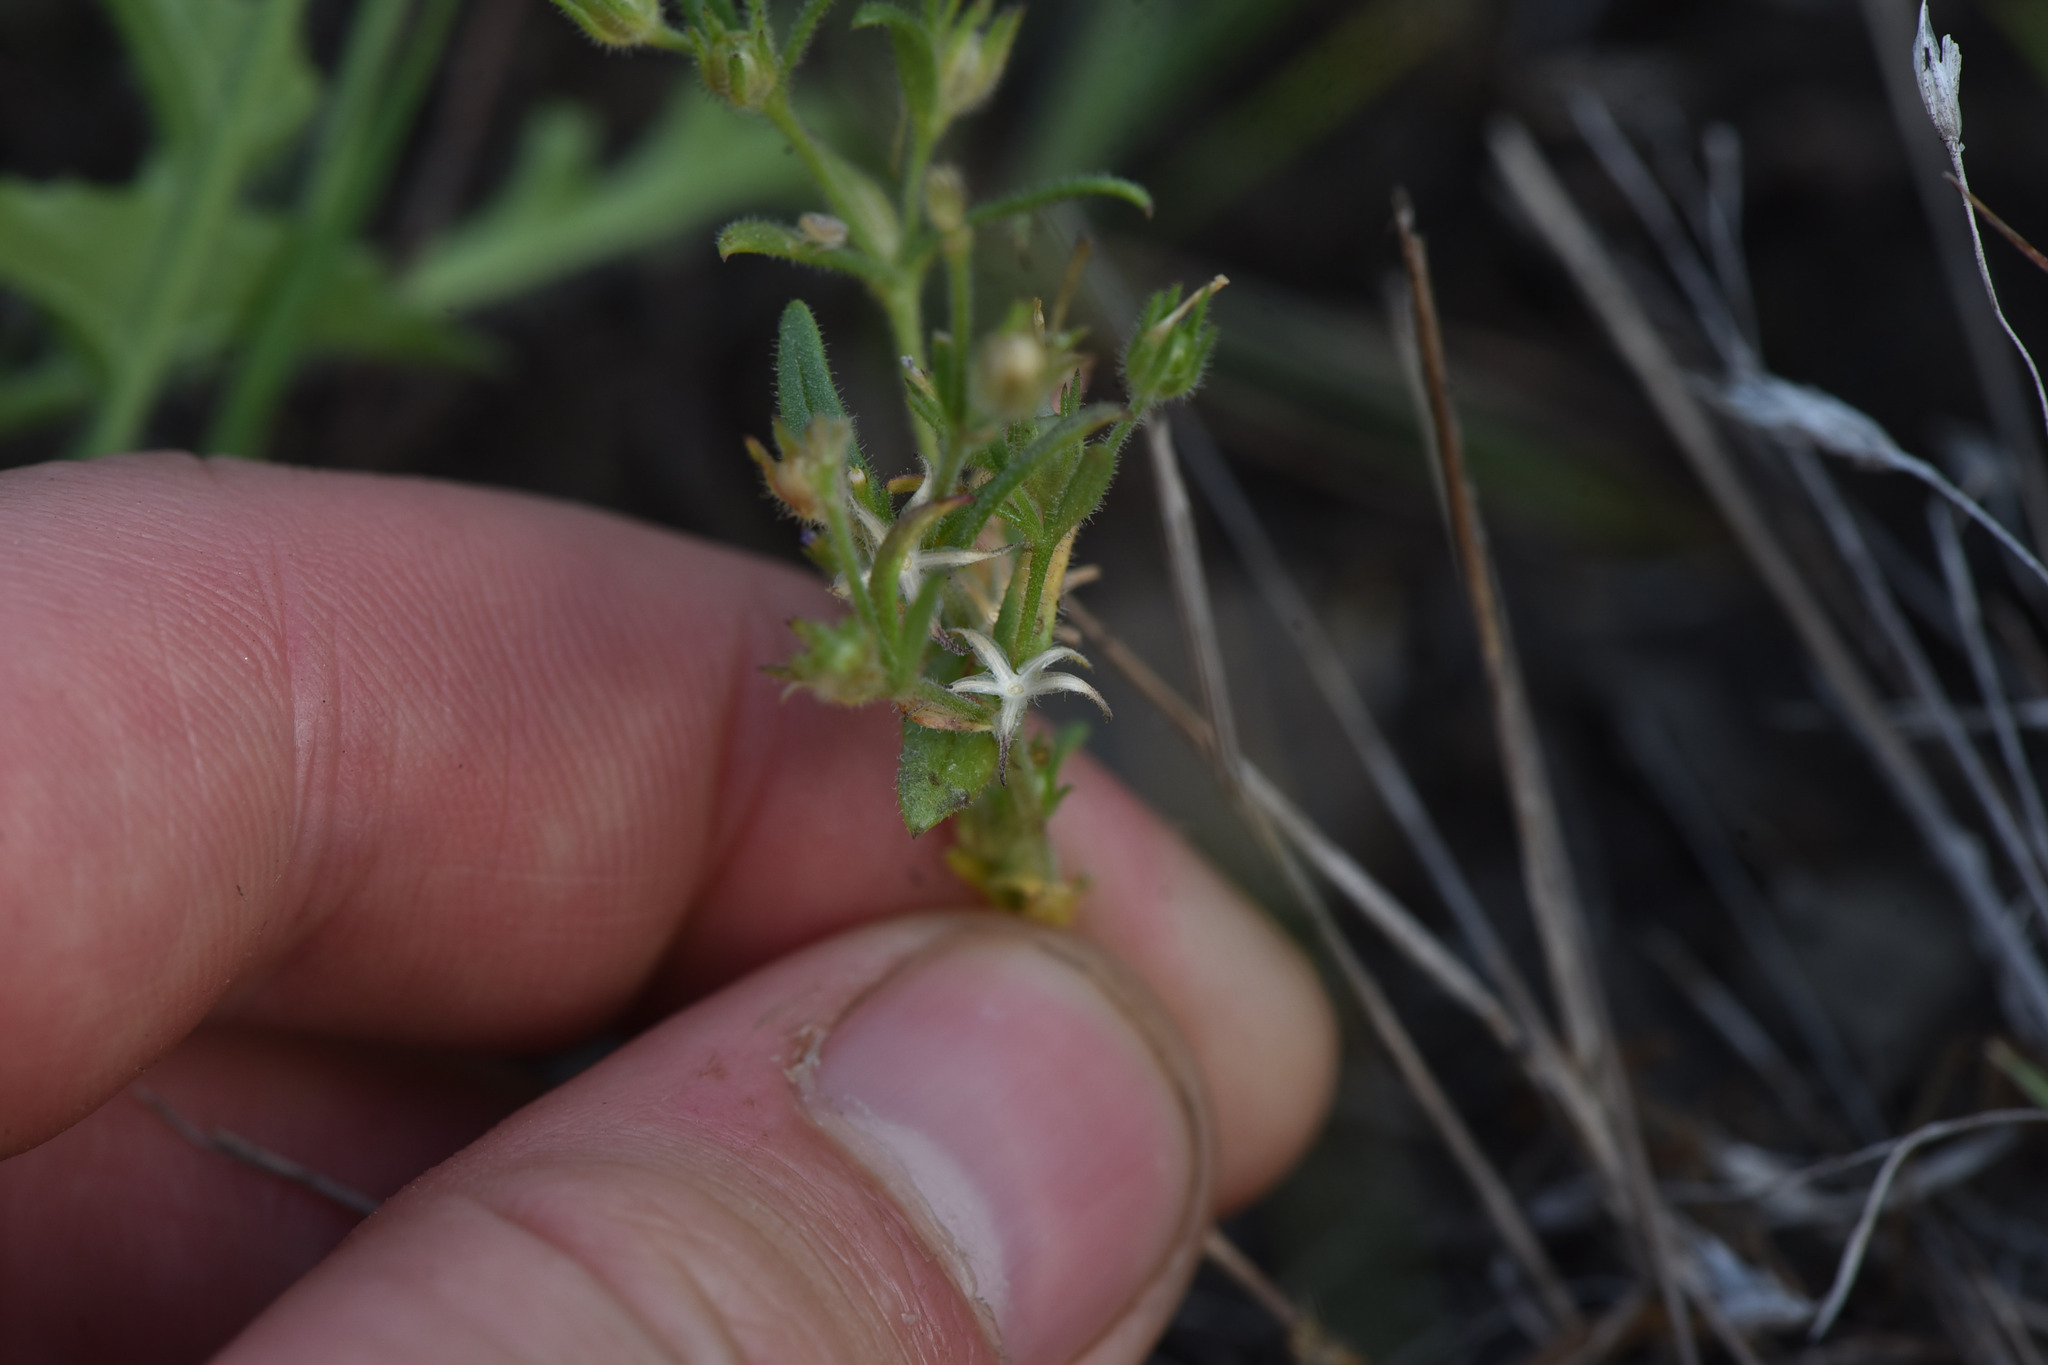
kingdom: Plantae
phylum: Tracheophyta
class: Magnoliopsida
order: Ericales
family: Polemoniaceae
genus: Phlox
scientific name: Phlox gracilis
